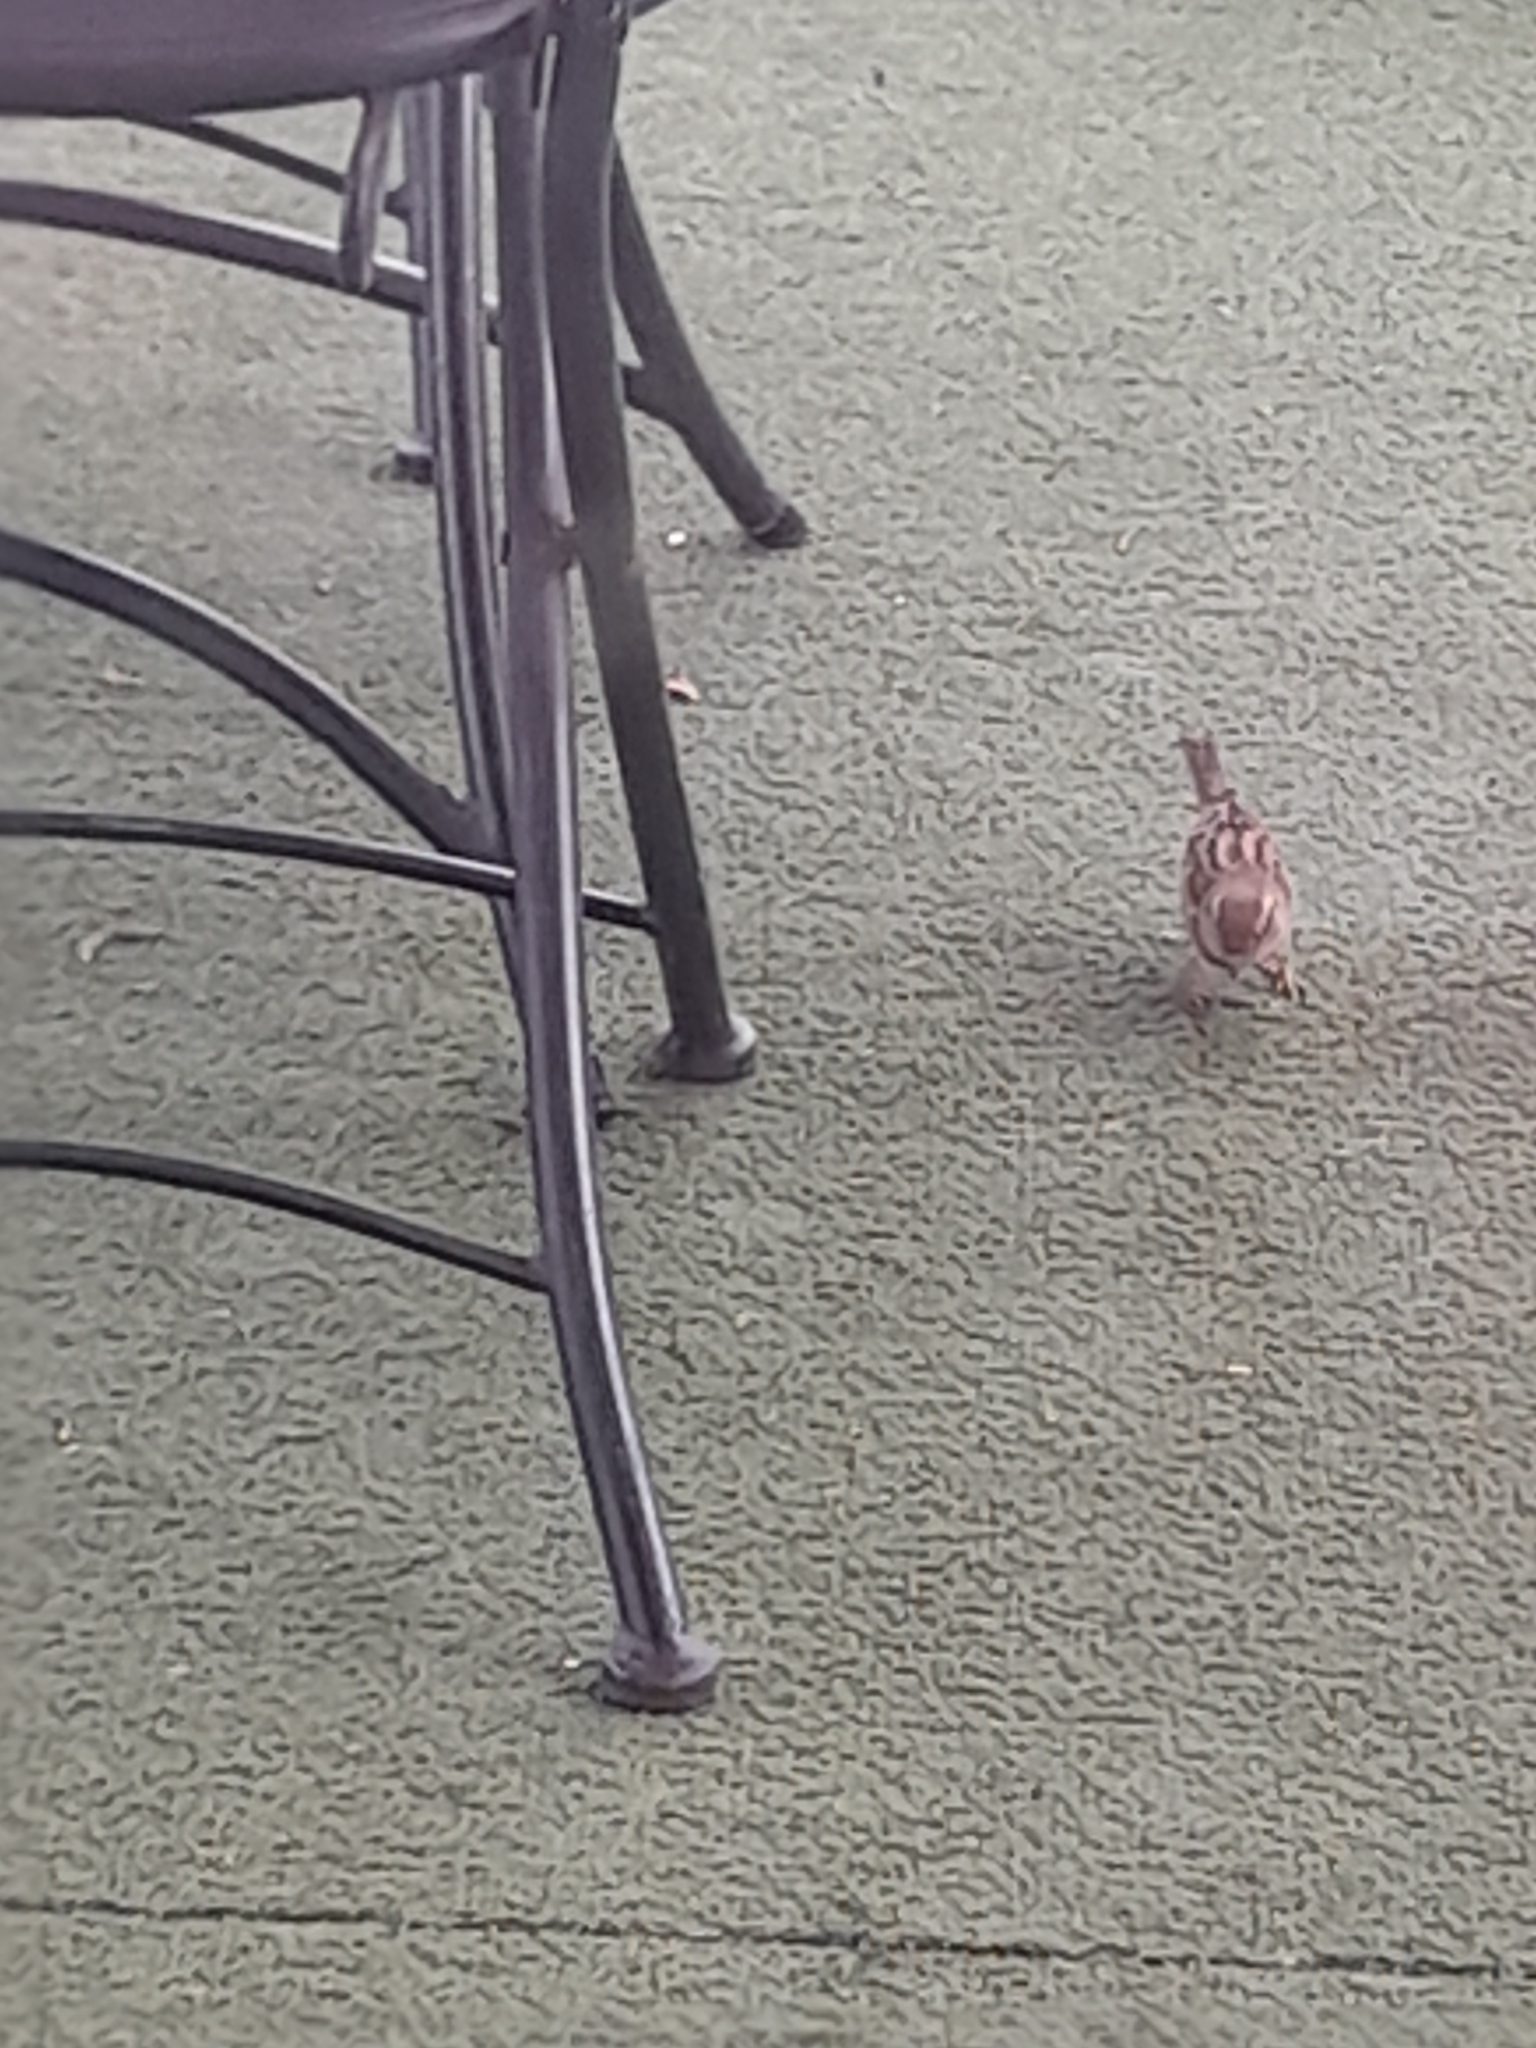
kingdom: Animalia
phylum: Chordata
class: Aves
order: Passeriformes
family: Passeridae
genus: Passer
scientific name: Passer italiae
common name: Italian sparrow
